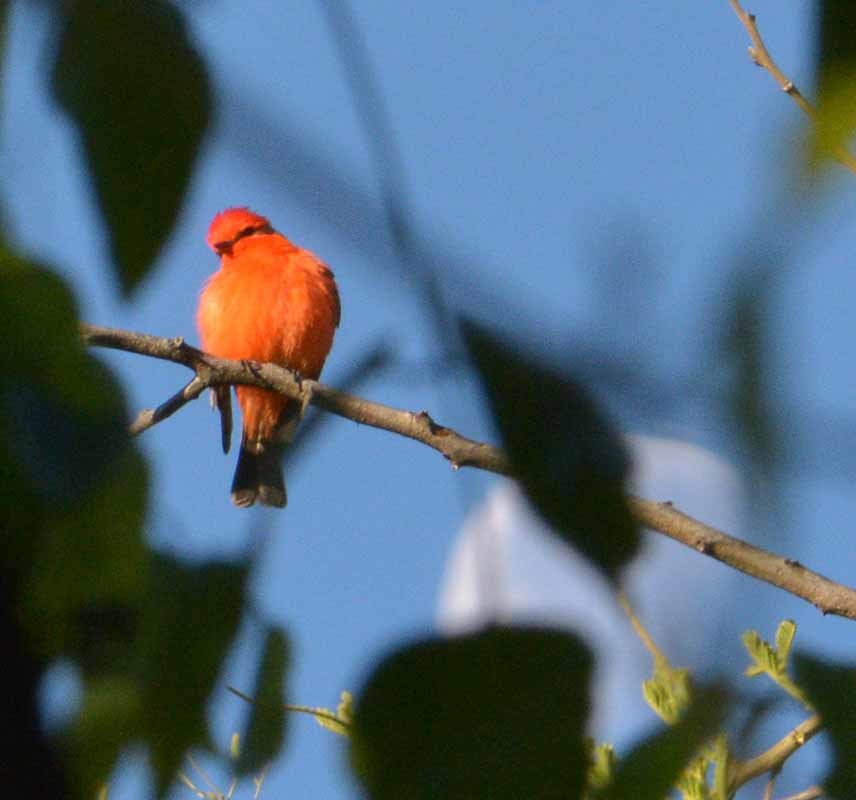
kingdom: Animalia
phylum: Chordata
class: Aves
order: Passeriformes
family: Tyrannidae
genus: Pyrocephalus
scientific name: Pyrocephalus rubinus
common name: Vermilion flycatcher
